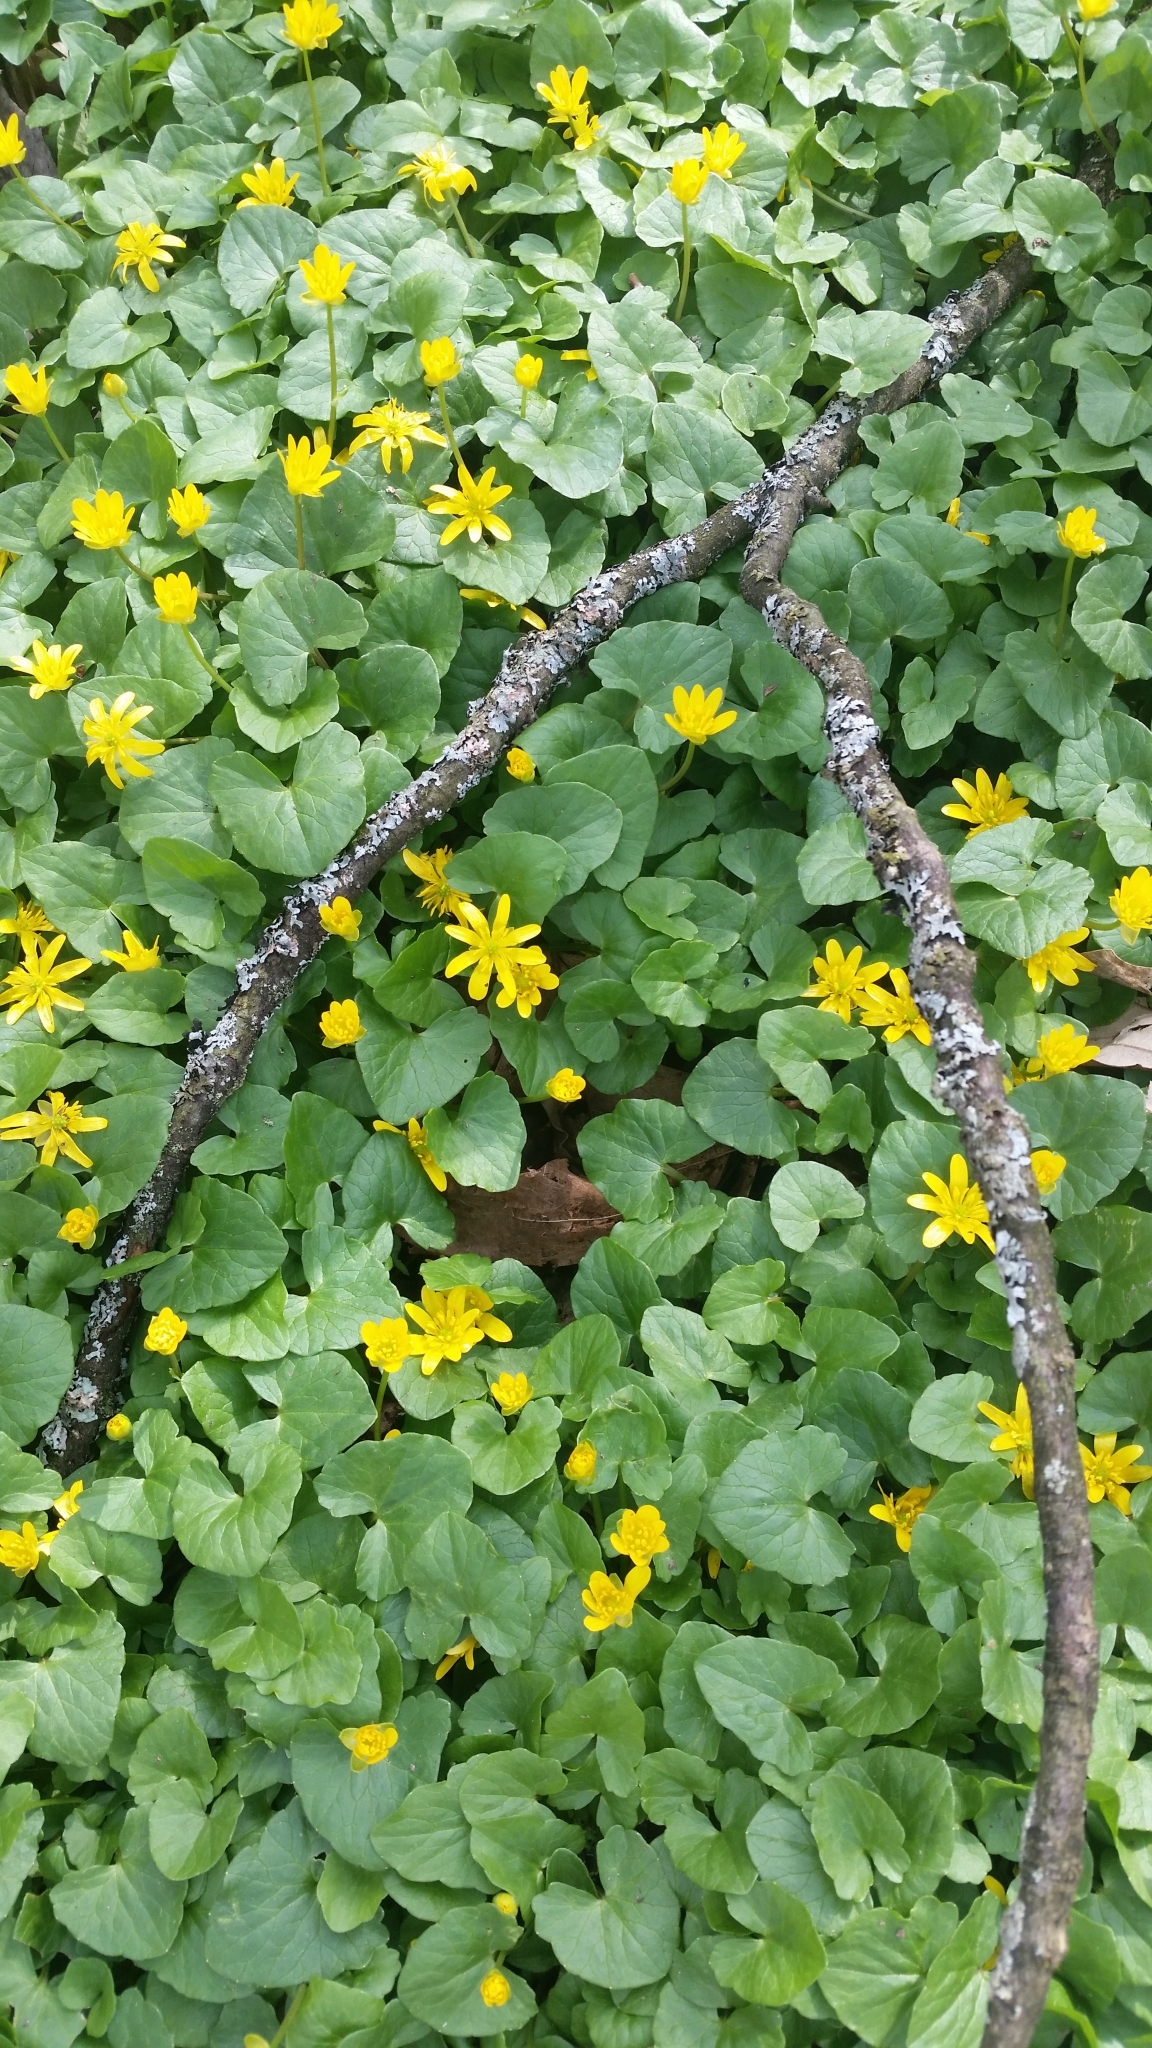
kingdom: Plantae
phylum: Tracheophyta
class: Magnoliopsida
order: Ranunculales
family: Ranunculaceae
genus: Ficaria
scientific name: Ficaria verna
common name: Lesser celandine
